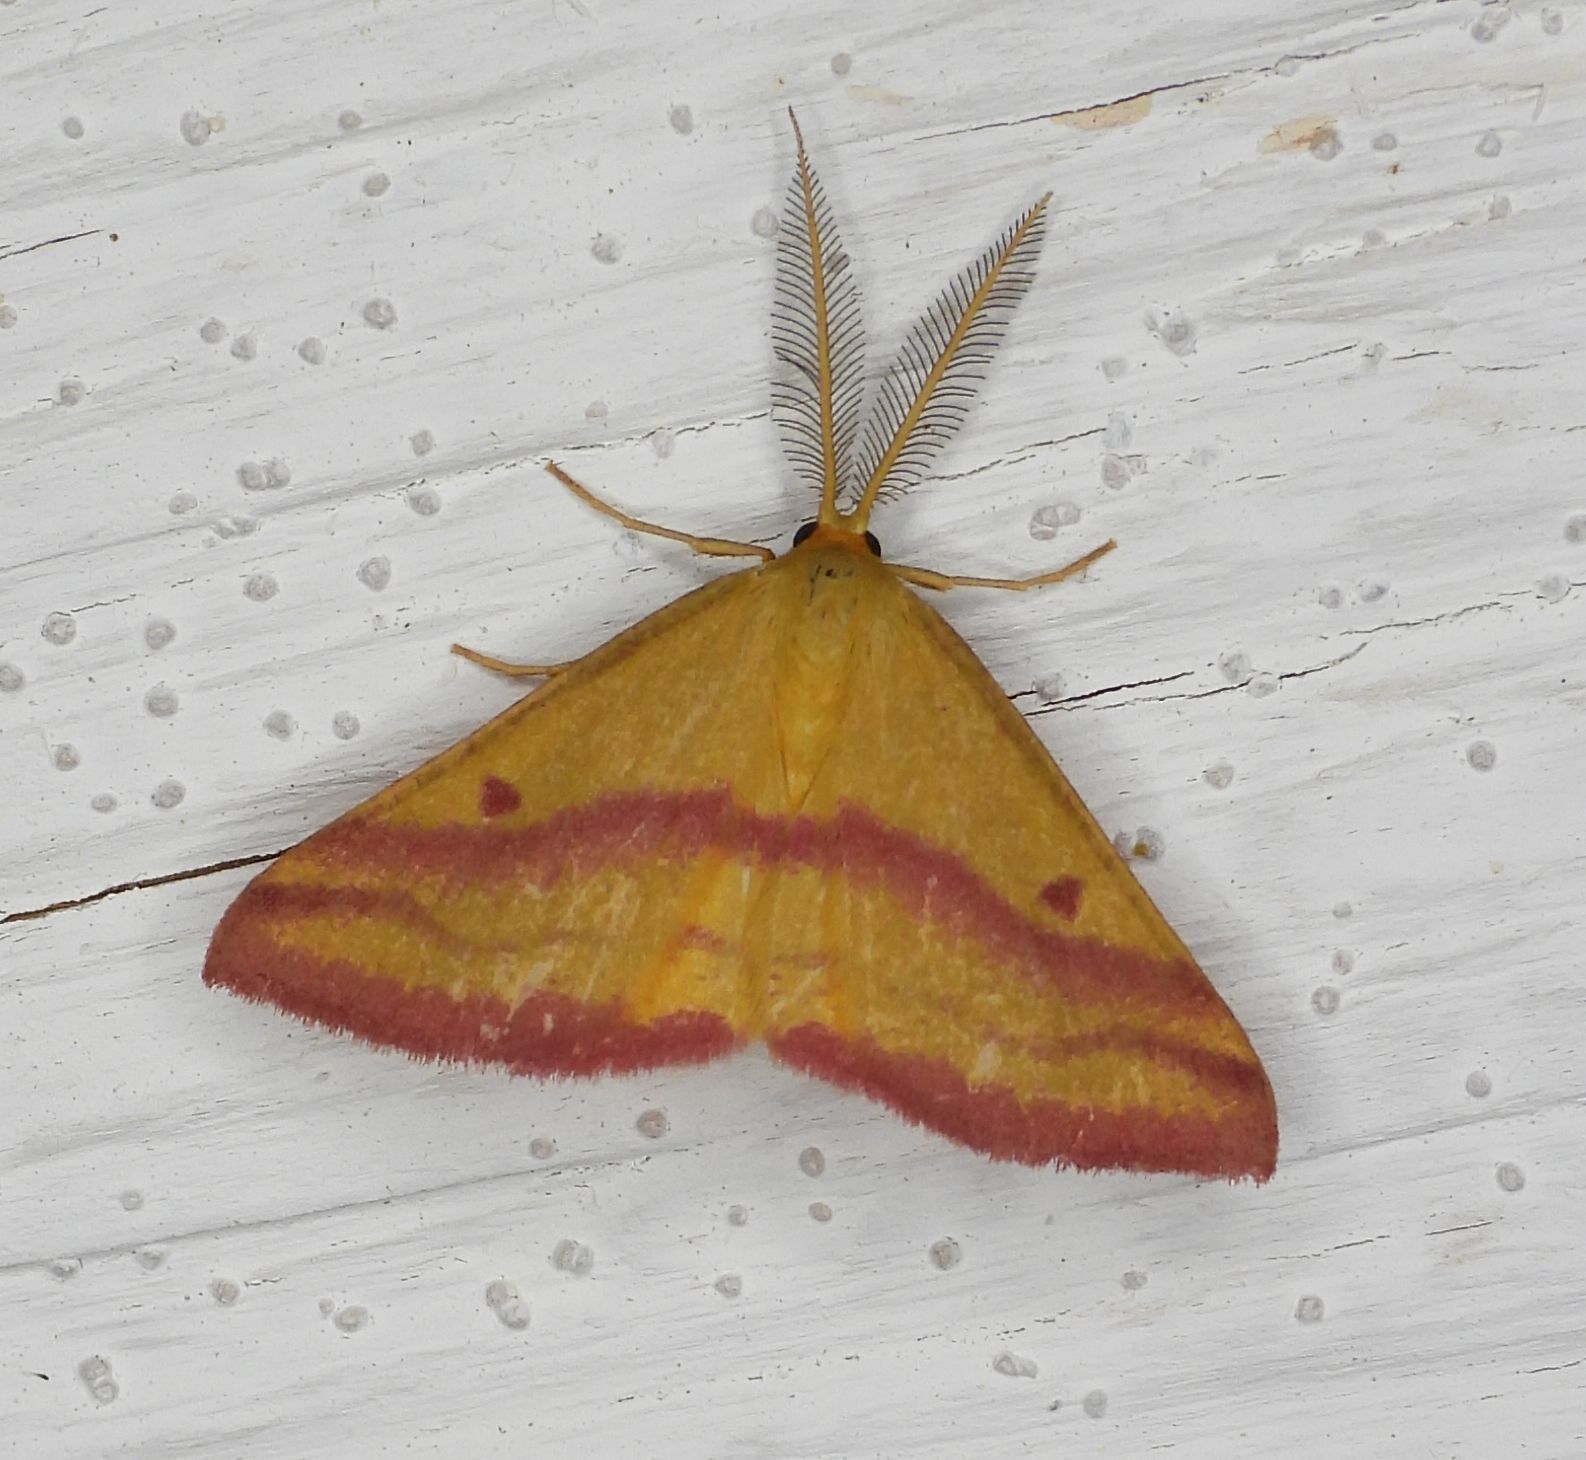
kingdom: Animalia
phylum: Arthropoda
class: Insecta
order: Lepidoptera
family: Geometridae
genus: Haematopis
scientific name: Haematopis grataria
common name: Chickweed geometer
